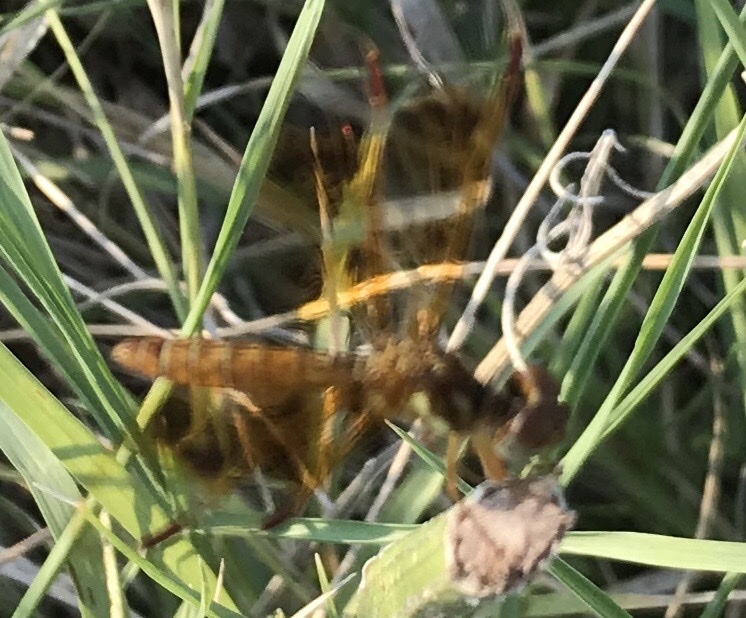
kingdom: Animalia
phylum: Arthropoda
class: Insecta
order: Odonata
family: Libellulidae
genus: Perithemis
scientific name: Perithemis tenera
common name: Eastern amberwing
